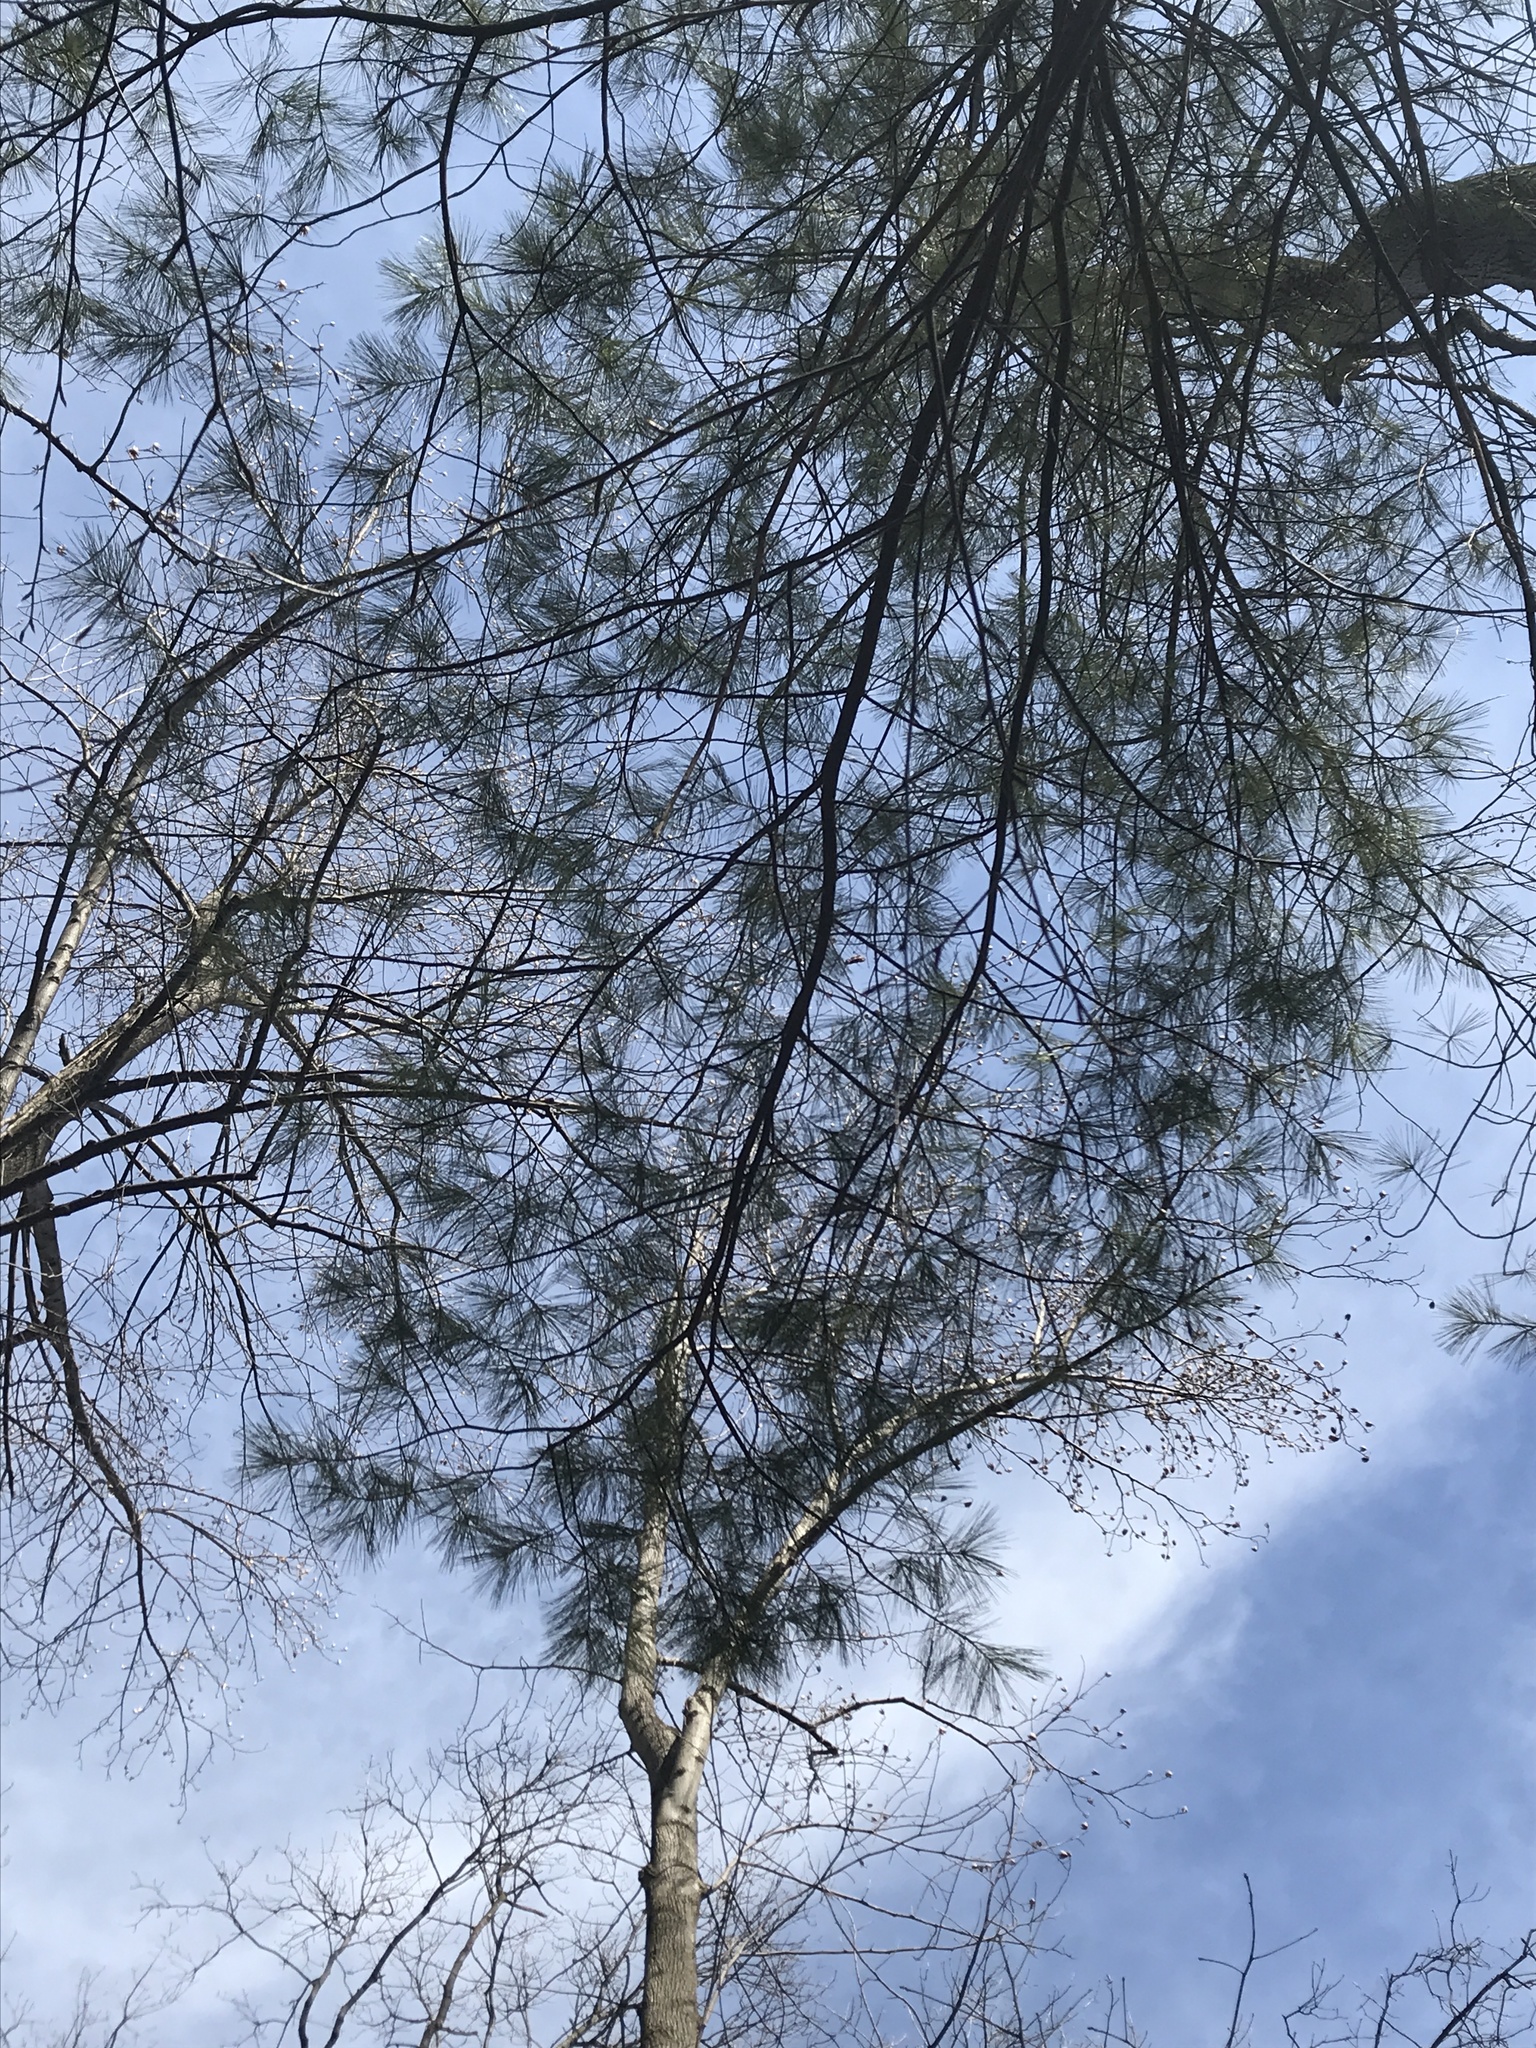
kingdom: Plantae
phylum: Tracheophyta
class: Pinopsida
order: Pinales
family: Pinaceae
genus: Pinus
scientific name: Pinus strobus
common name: Weymouth pine
